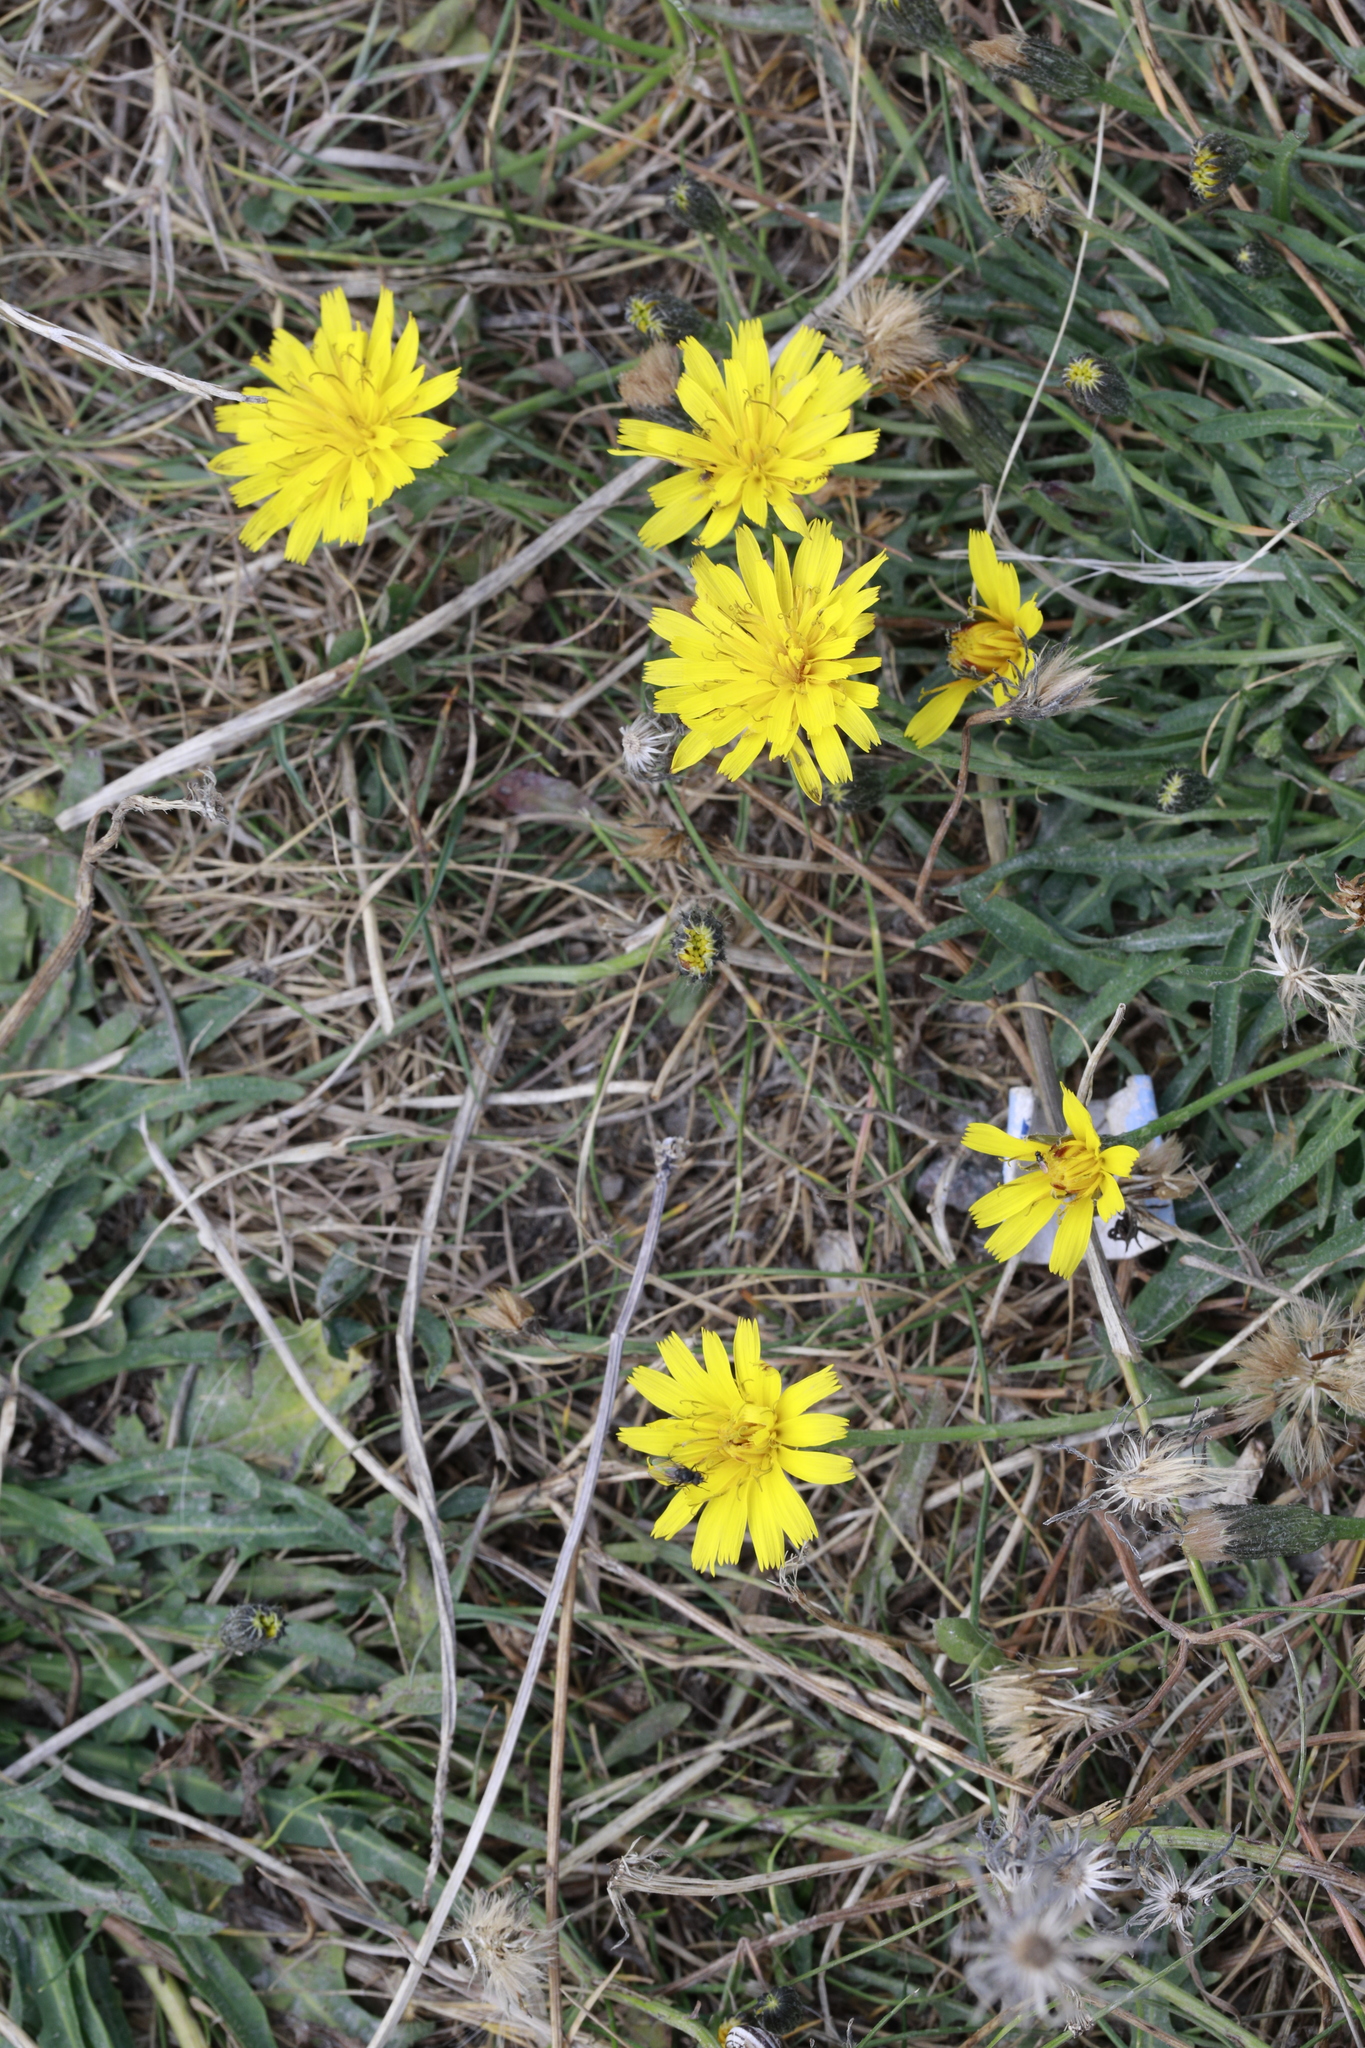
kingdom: Plantae
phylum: Tracheophyta
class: Magnoliopsida
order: Asterales
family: Asteraceae
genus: Scorzoneroides
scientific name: Scorzoneroides autumnalis
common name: Autumn hawkbit
